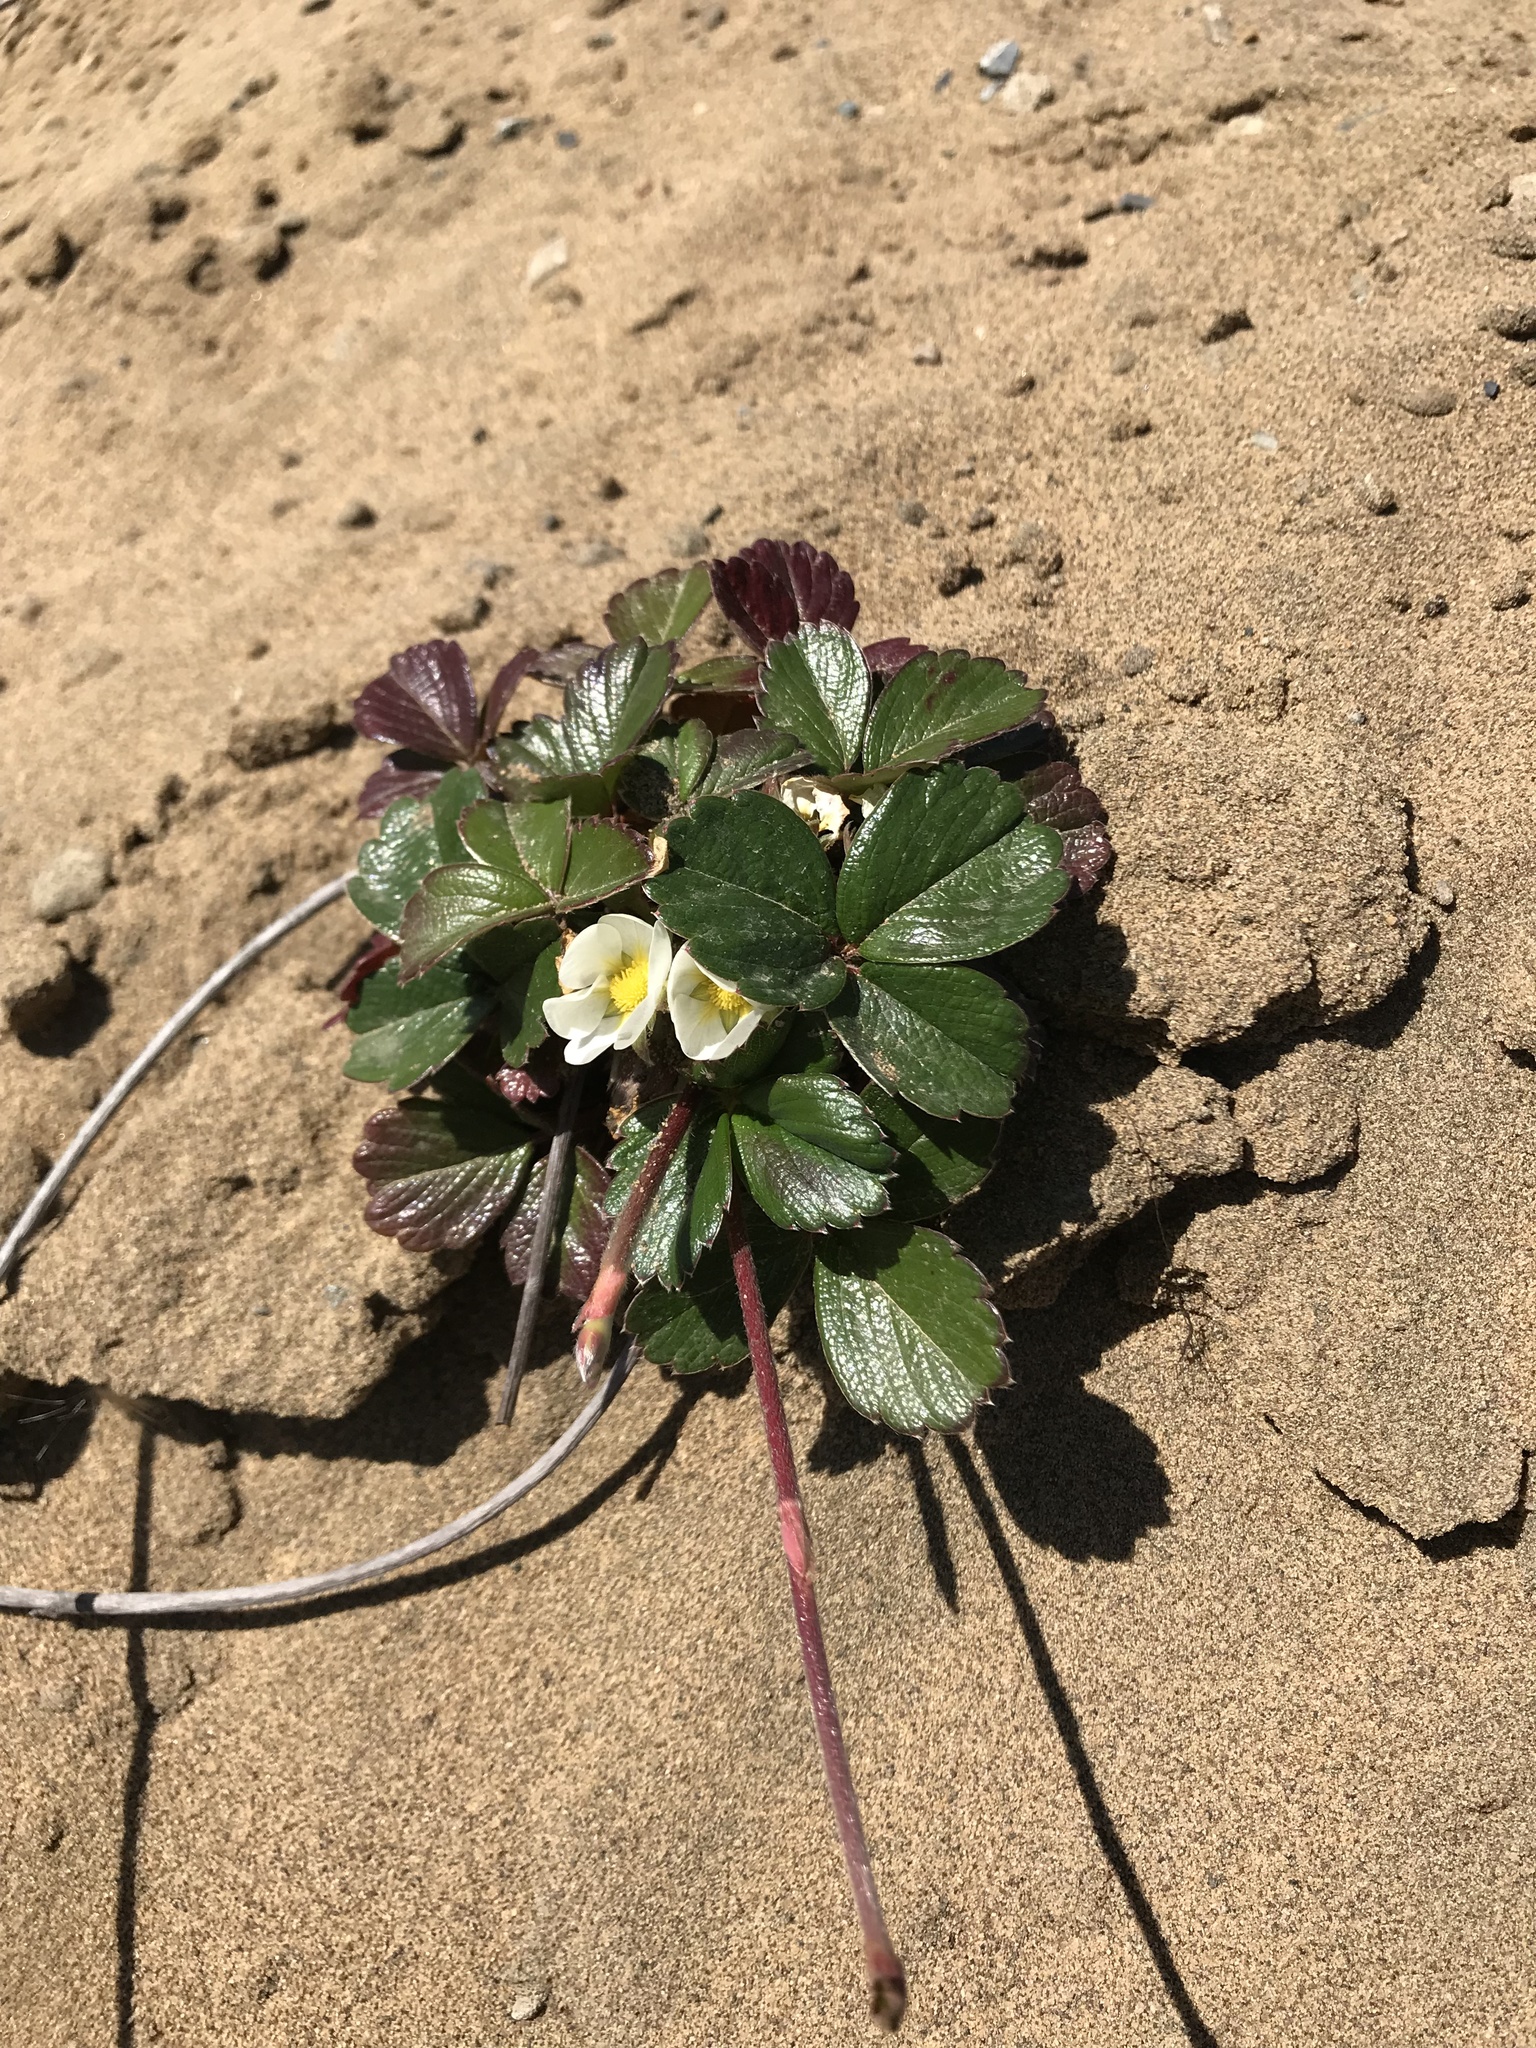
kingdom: Plantae
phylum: Tracheophyta
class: Magnoliopsida
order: Rosales
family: Rosaceae
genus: Fragaria
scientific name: Fragaria chiloensis
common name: Beach strawberry
